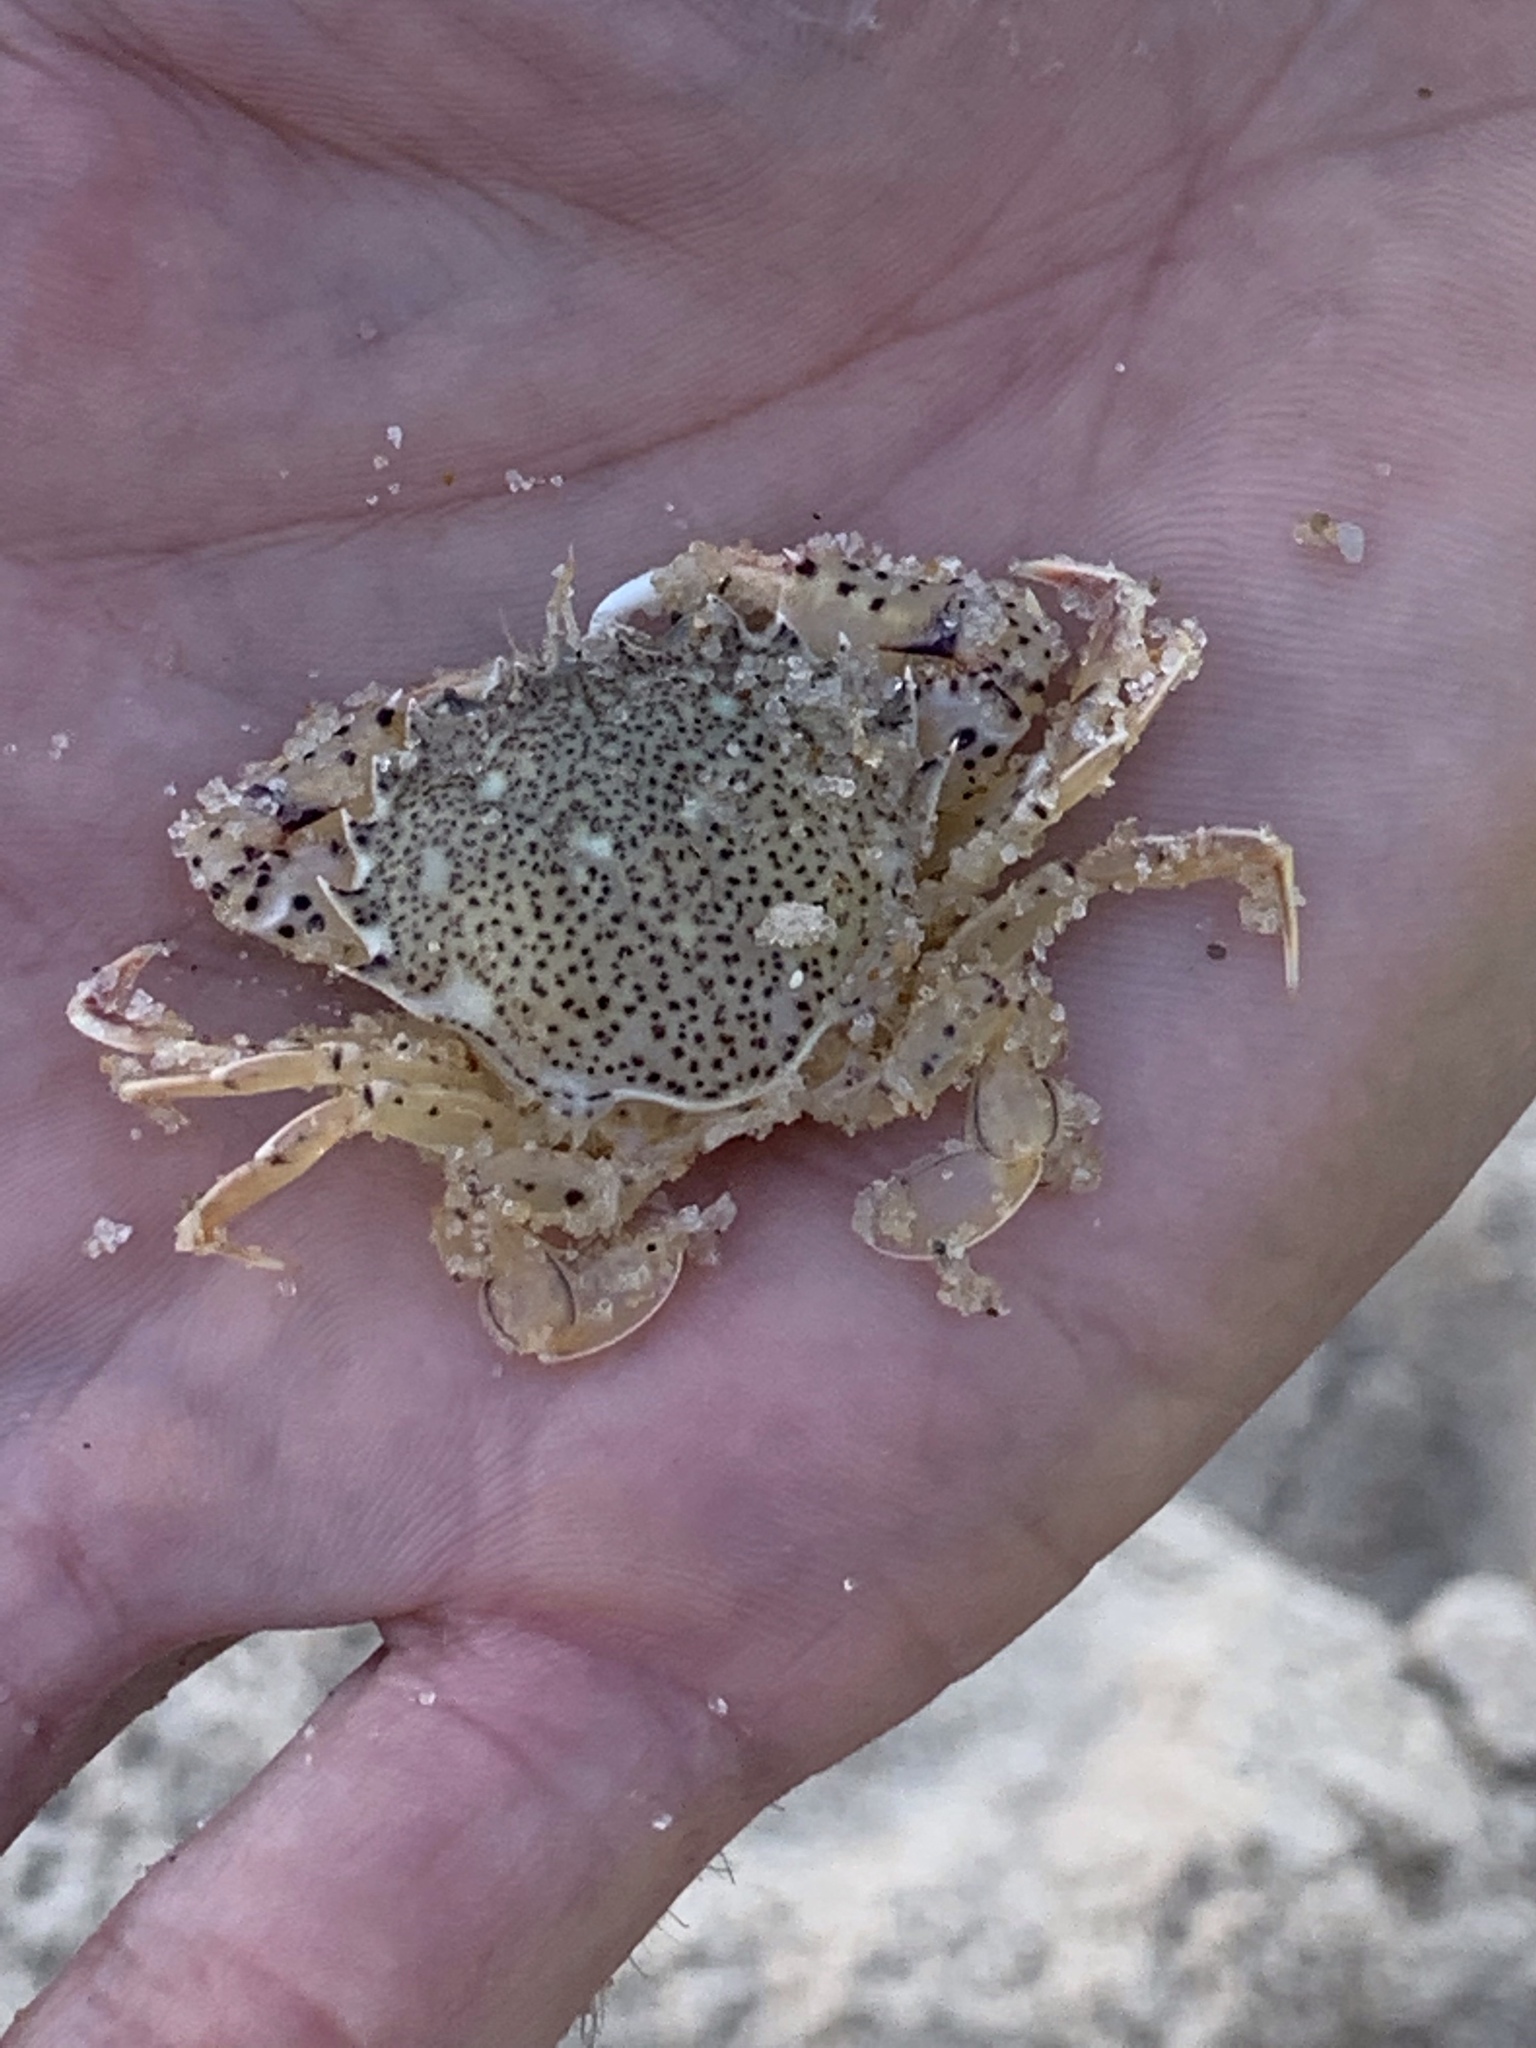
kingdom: Animalia
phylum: Arthropoda
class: Malacostraca
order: Decapoda
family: Ovalipidae
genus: Ovalipes
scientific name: Ovalipes ocellatus
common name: Lady crab
